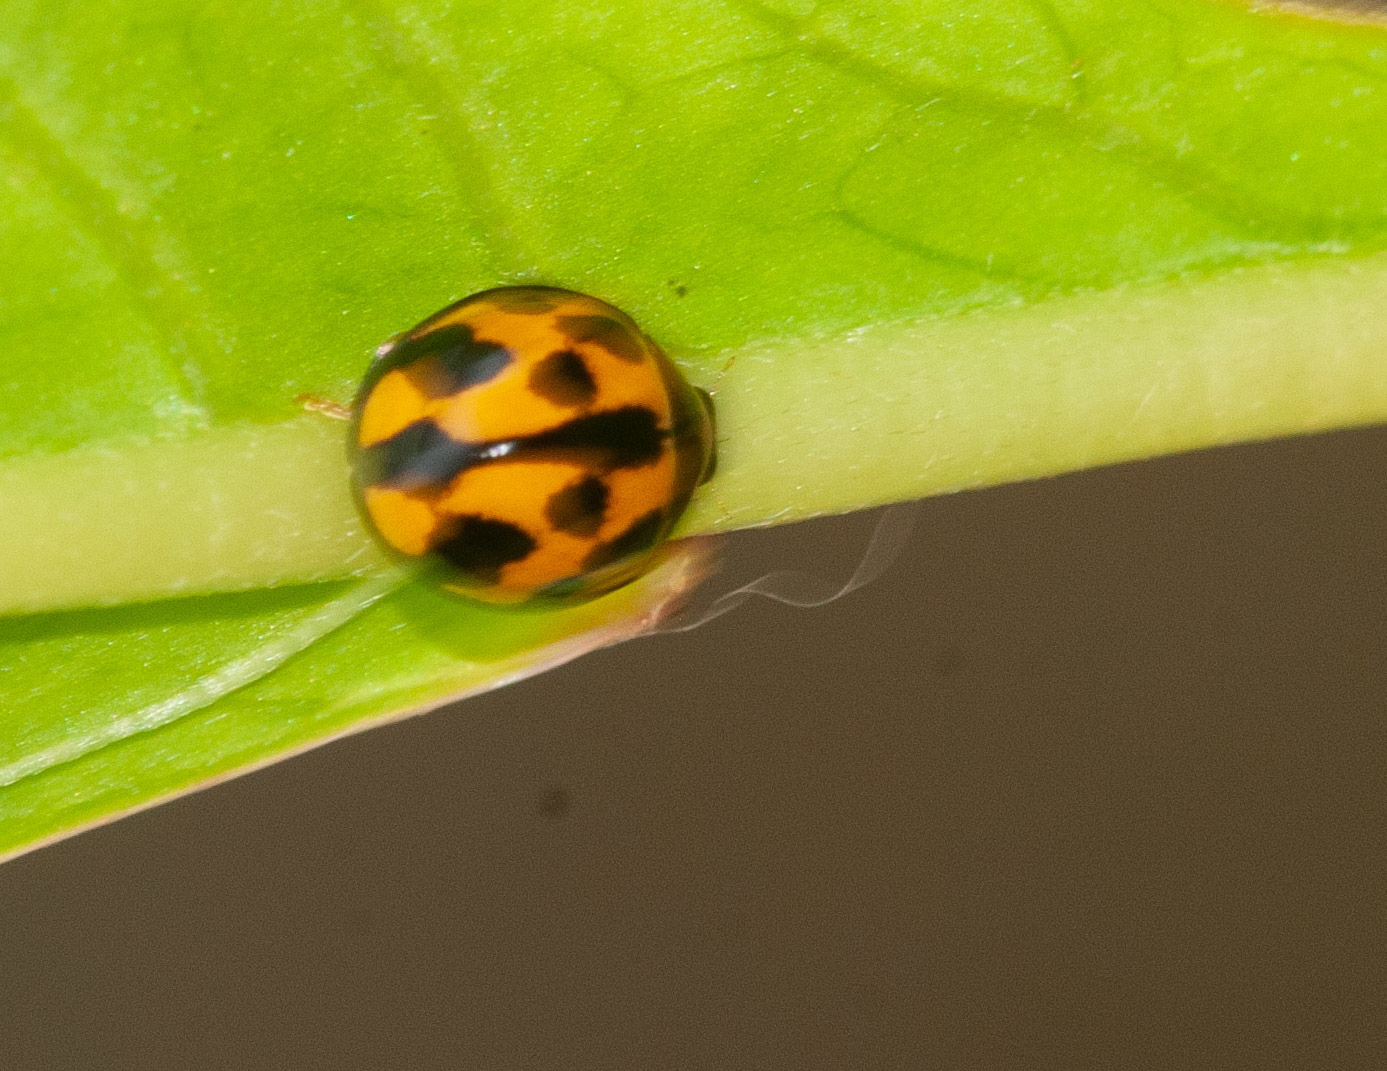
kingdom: Animalia
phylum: Arthropoda
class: Insecta
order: Coleoptera
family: Coccinellidae
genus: Coelophora
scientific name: Coelophora inaequalis
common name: Common australian lady beetle
